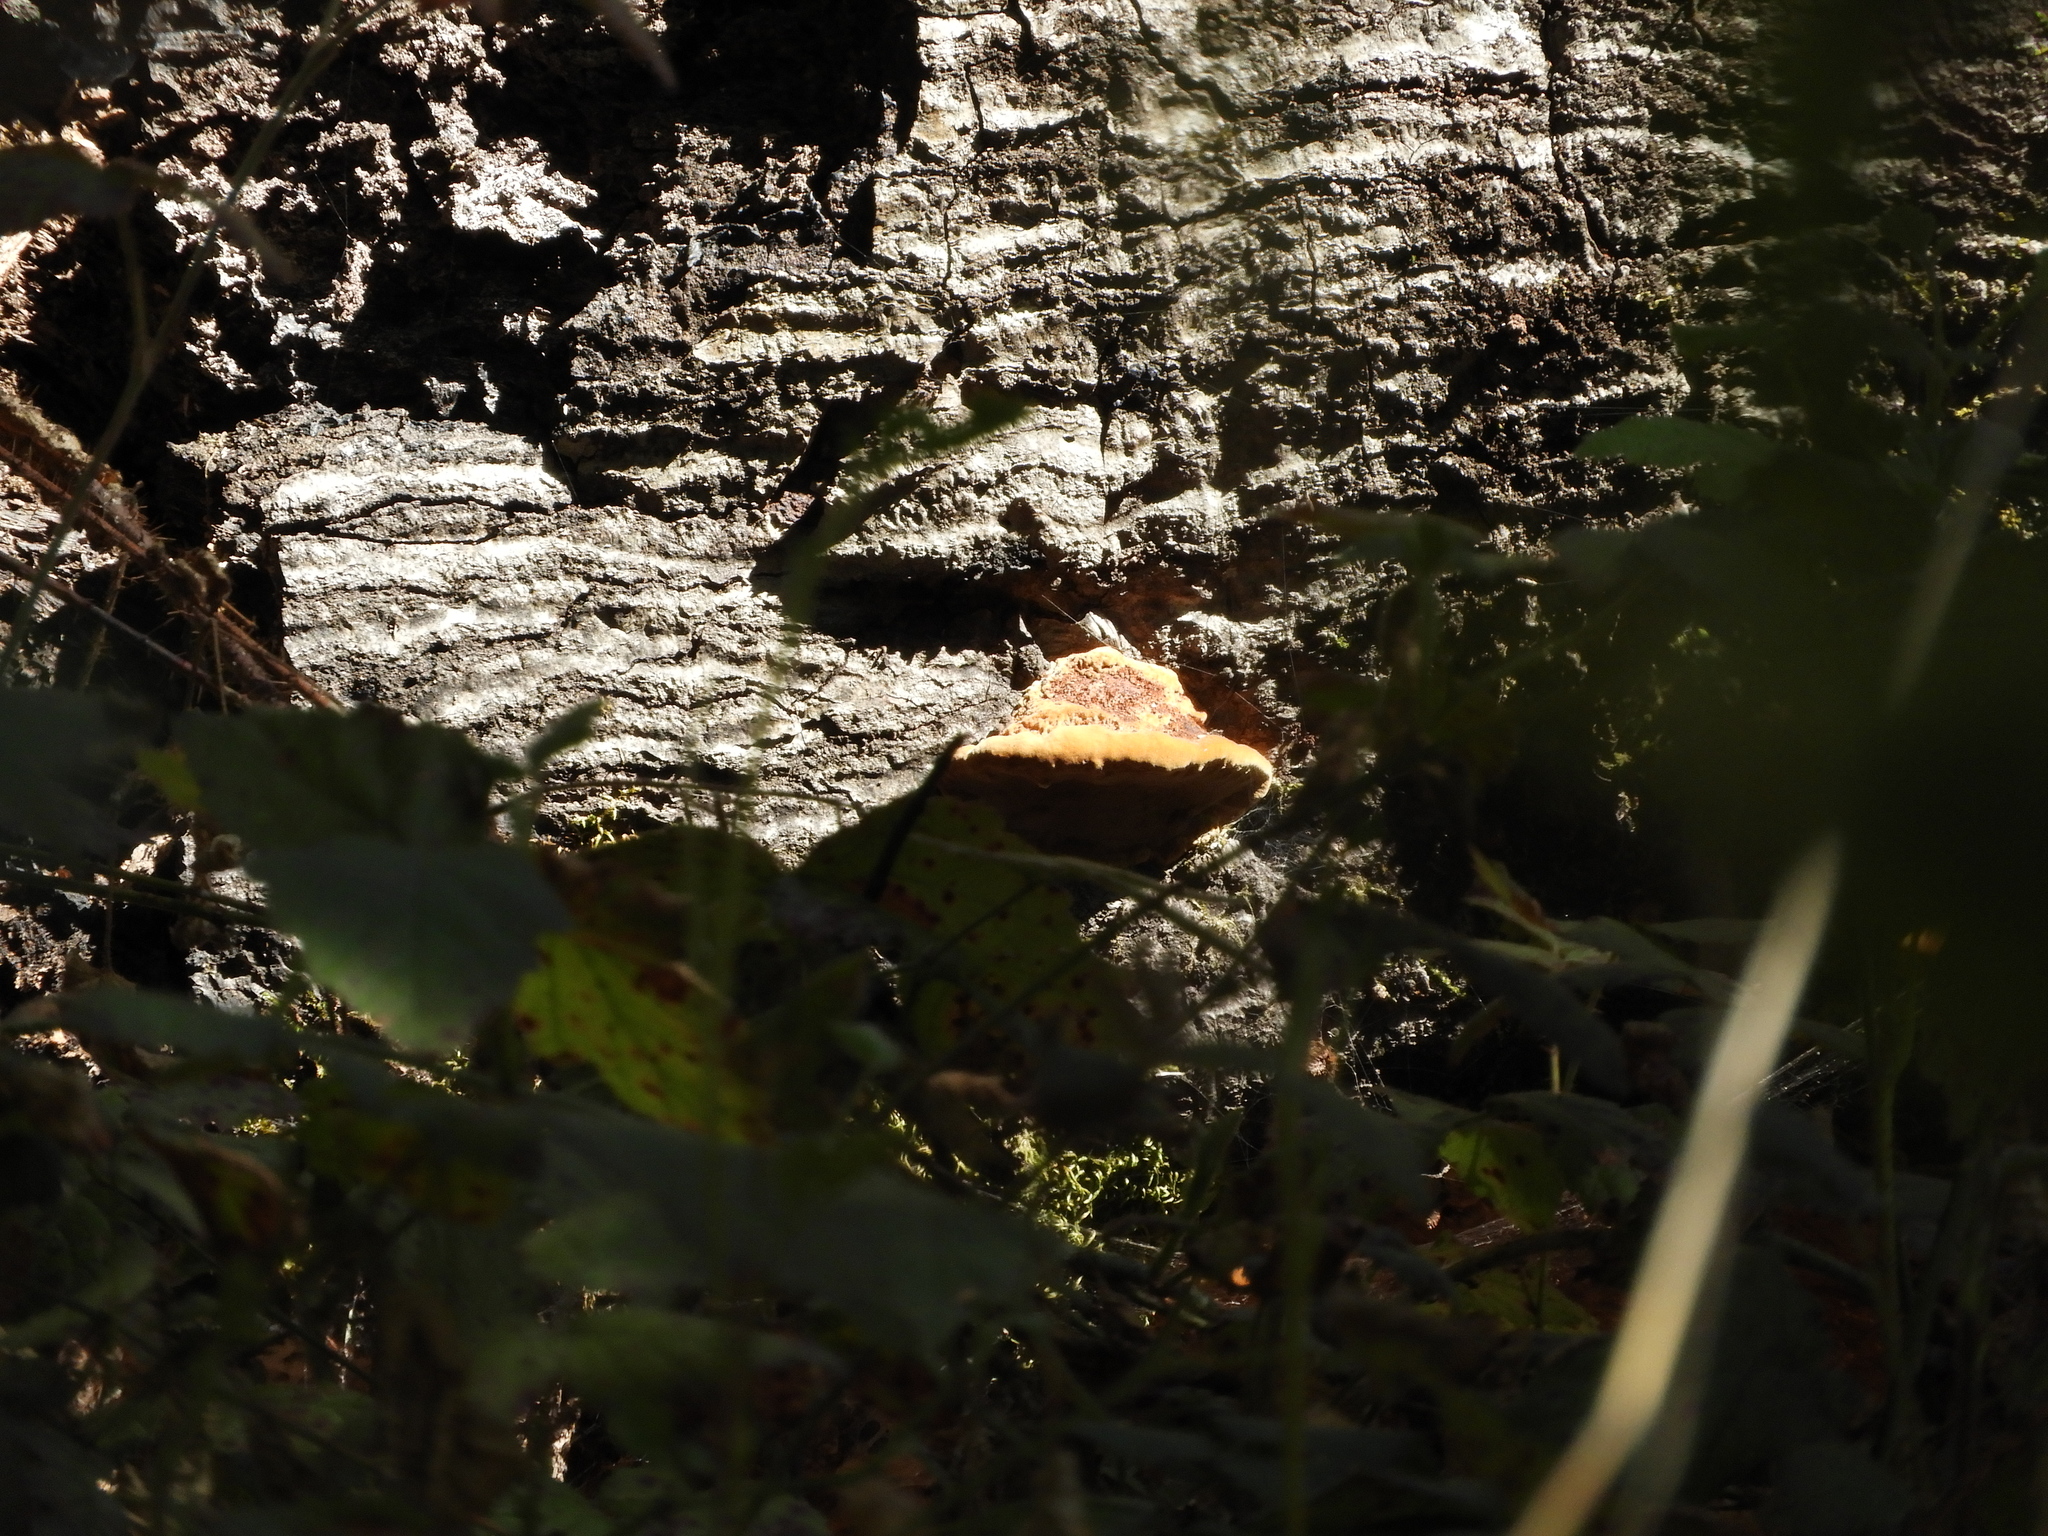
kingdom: Fungi
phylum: Basidiomycota
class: Agaricomycetes
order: Hymenochaetales
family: Hymenochaetaceae
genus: Phellinus
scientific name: Phellinus gilvus
